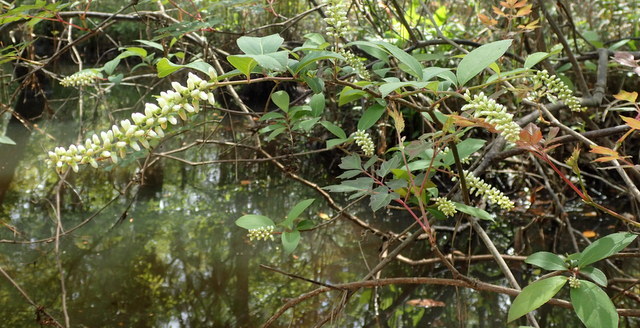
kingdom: Plantae
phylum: Tracheophyta
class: Magnoliopsida
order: Saxifragales
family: Iteaceae
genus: Itea
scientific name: Itea virginica
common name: Sweetspire
